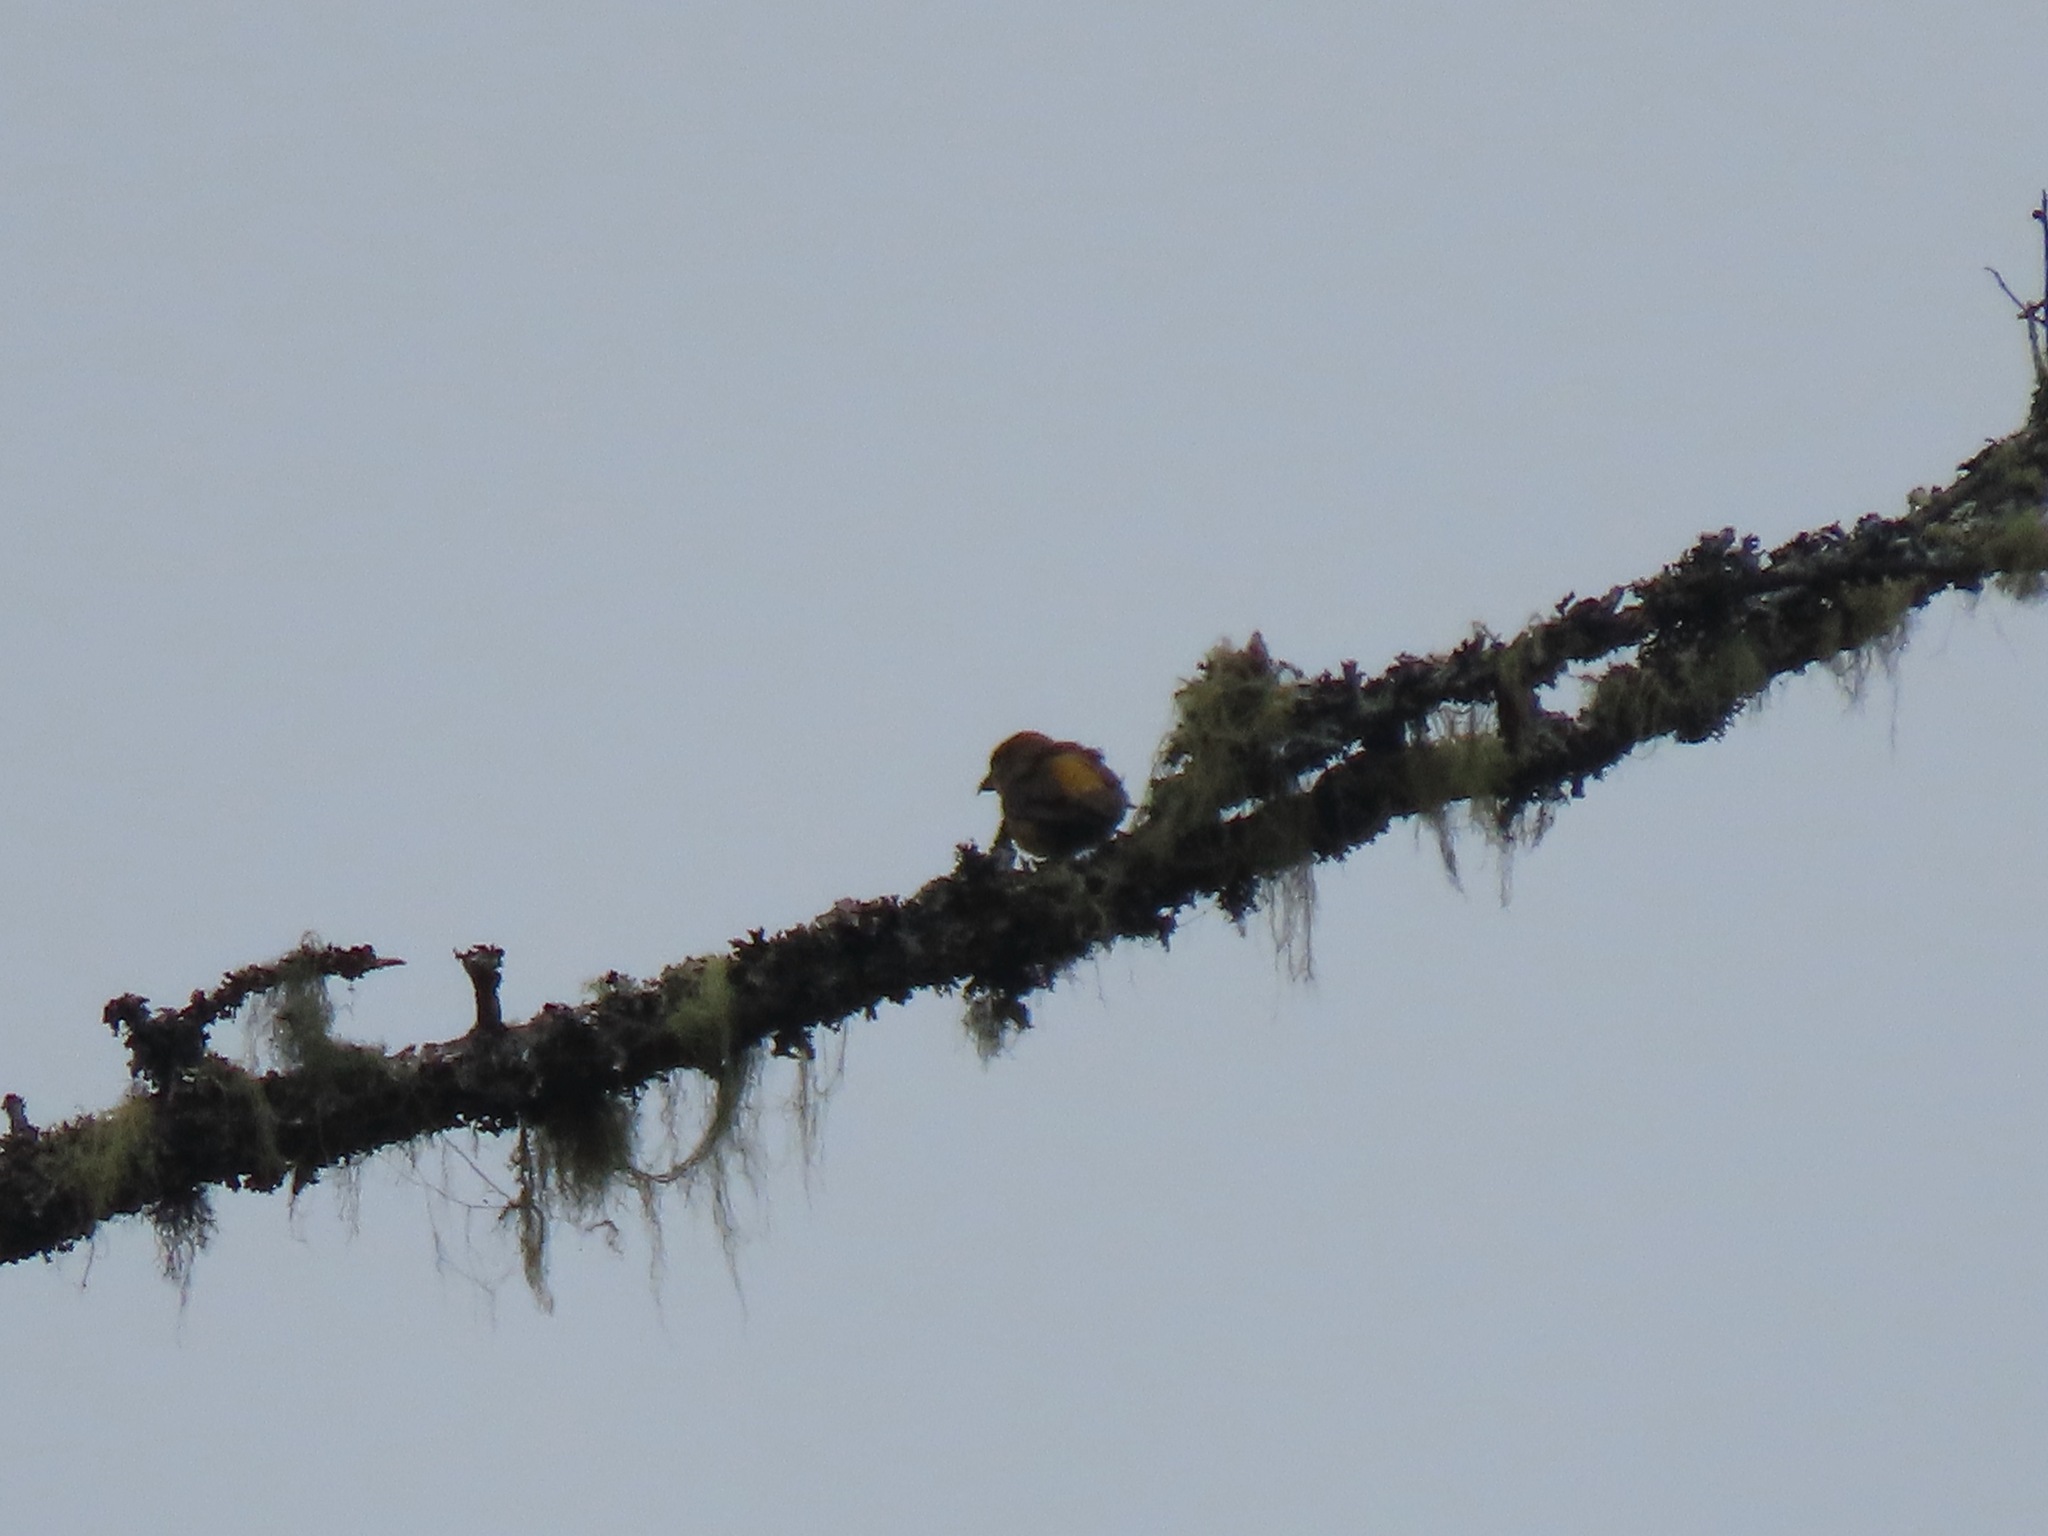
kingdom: Animalia
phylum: Chordata
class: Aves
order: Passeriformes
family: Fringillidae
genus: Loxia
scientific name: Loxia curvirostra
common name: Red crossbill
